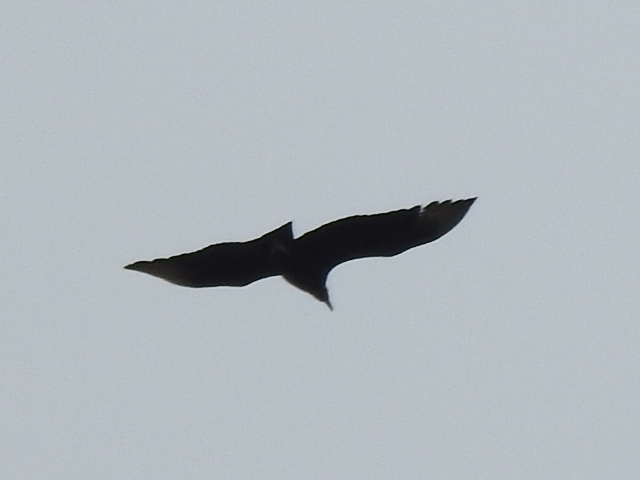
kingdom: Animalia
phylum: Chordata
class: Aves
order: Accipitriformes
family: Cathartidae
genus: Coragyps
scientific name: Coragyps atratus
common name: Black vulture
